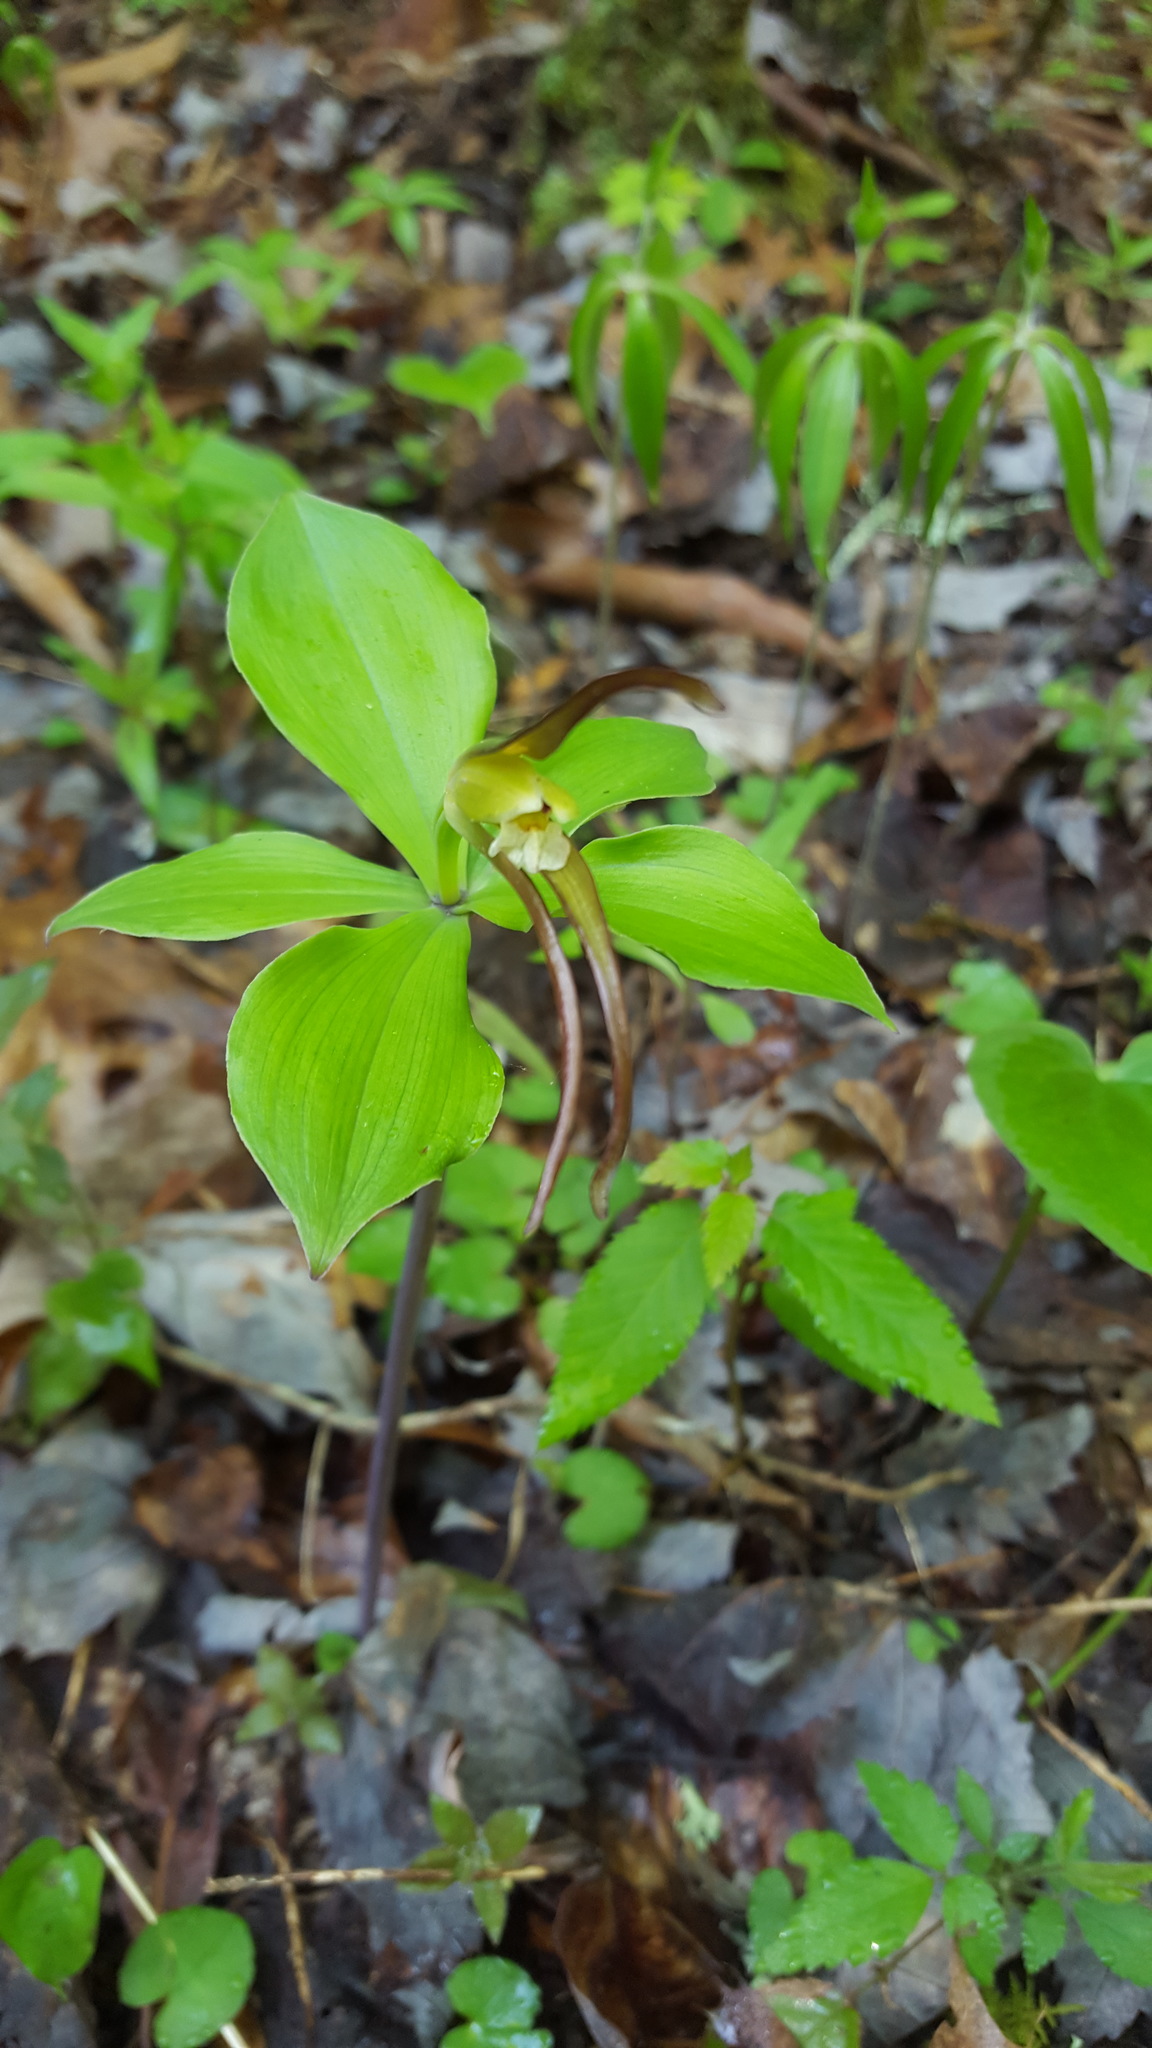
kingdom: Plantae
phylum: Tracheophyta
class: Liliopsida
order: Asparagales
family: Orchidaceae
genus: Isotria
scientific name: Isotria verticillata
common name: Large whorled pogonia
